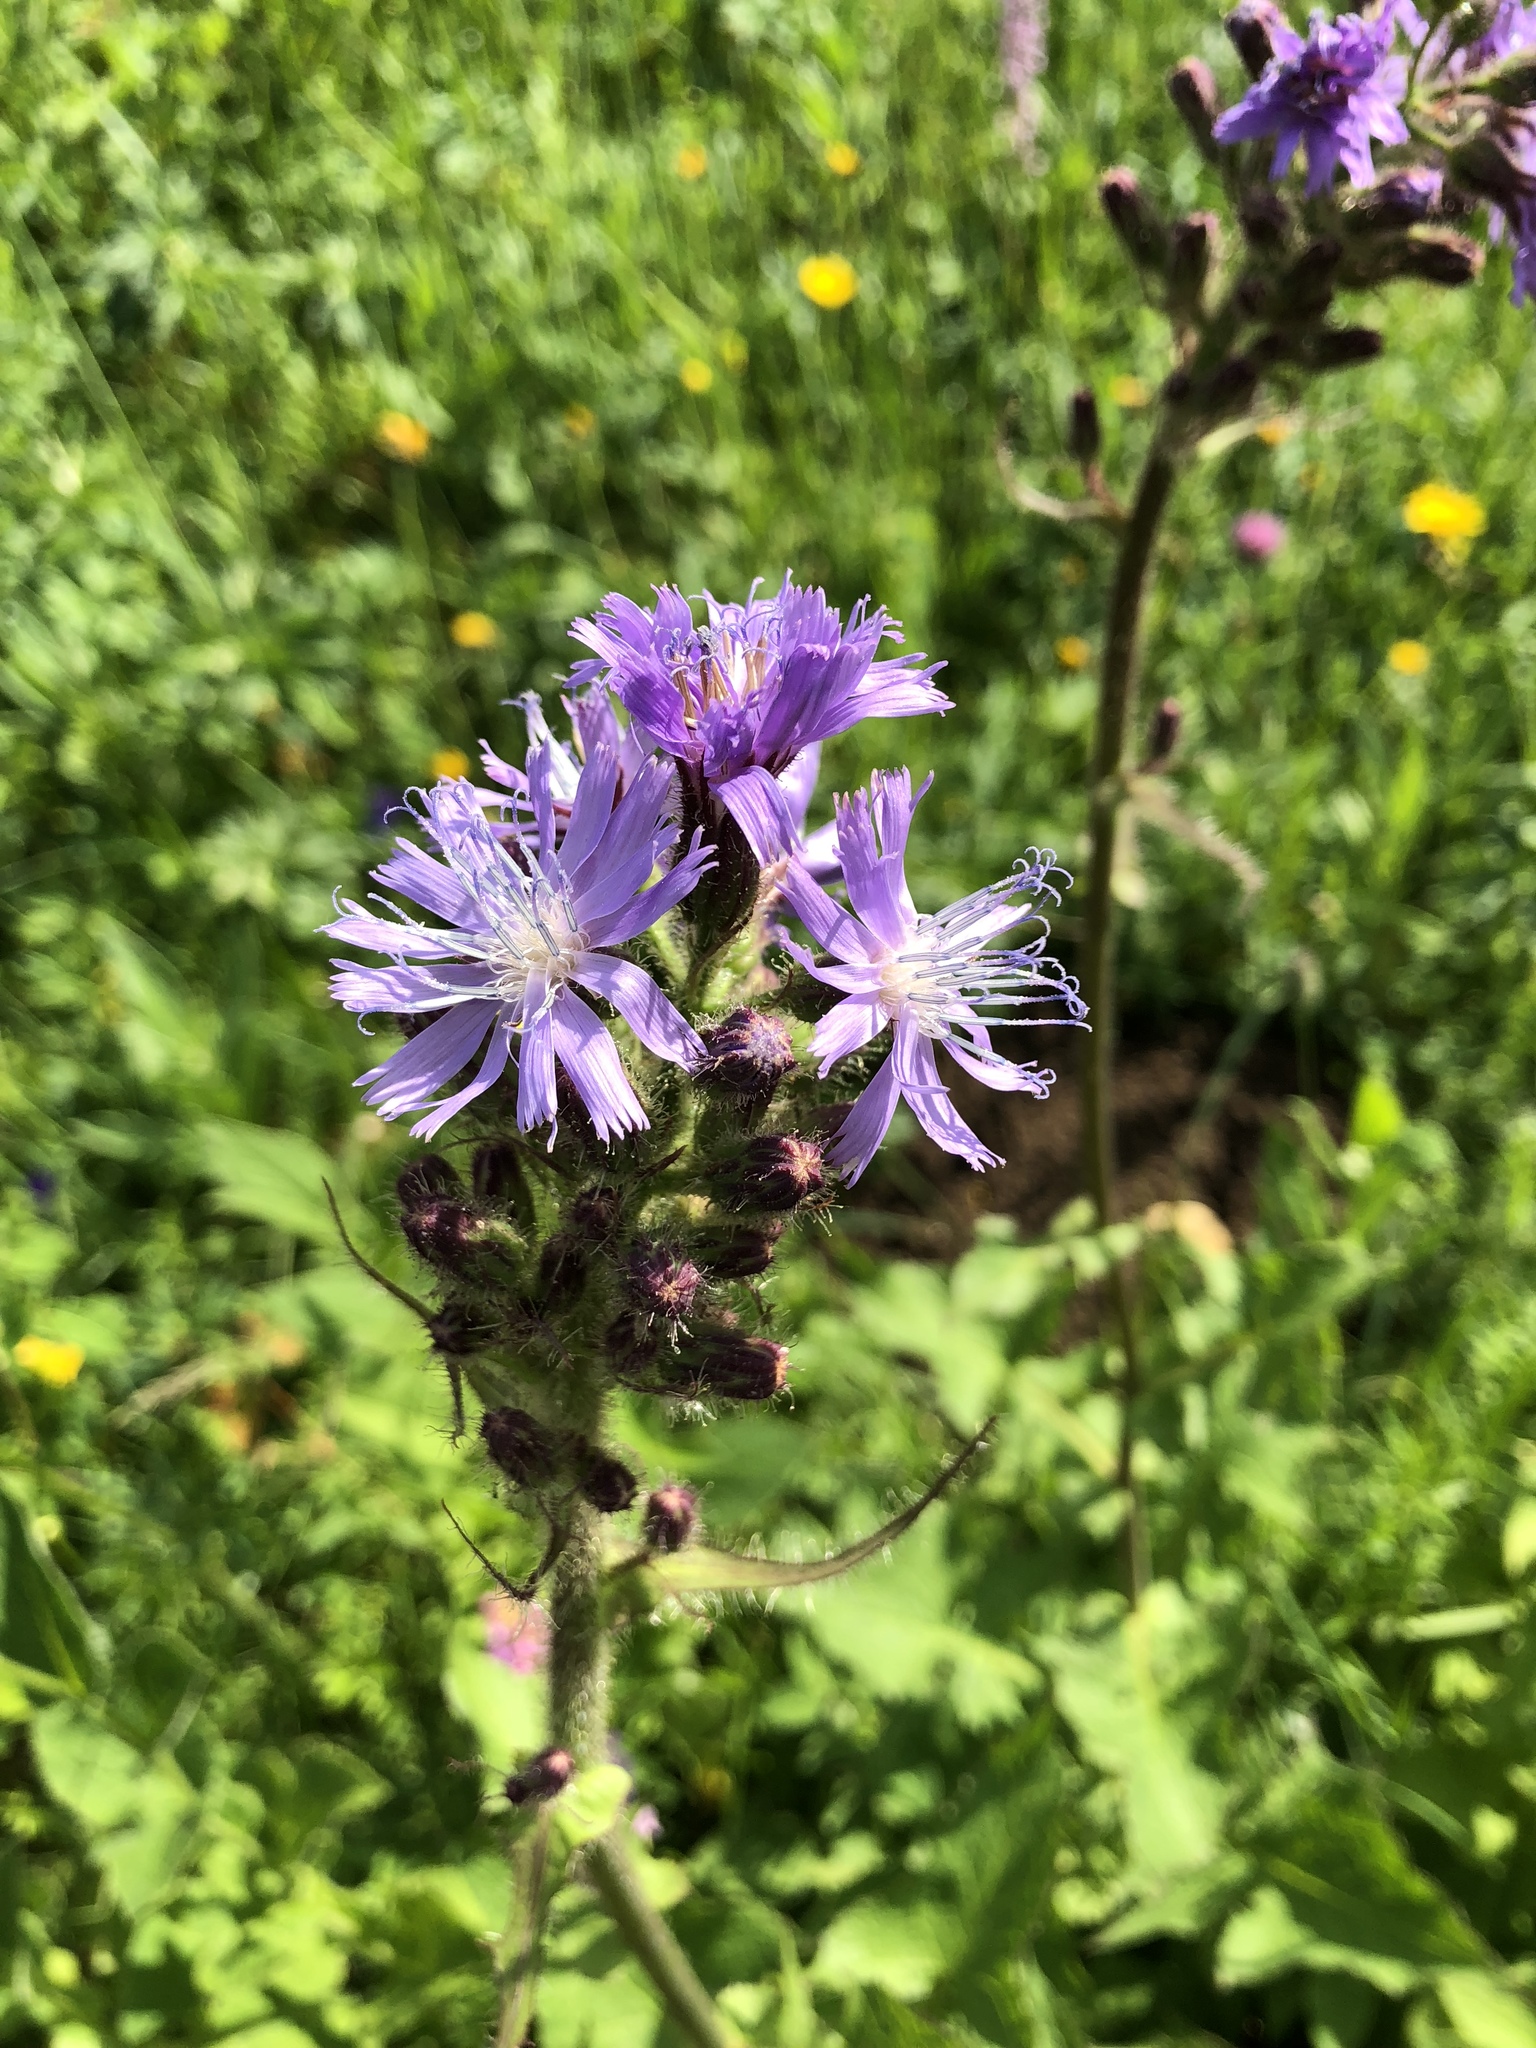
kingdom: Plantae
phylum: Tracheophyta
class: Magnoliopsida
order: Asterales
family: Asteraceae
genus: Cicerbita
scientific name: Cicerbita alpina
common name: Alpine blue-sow-thistle
